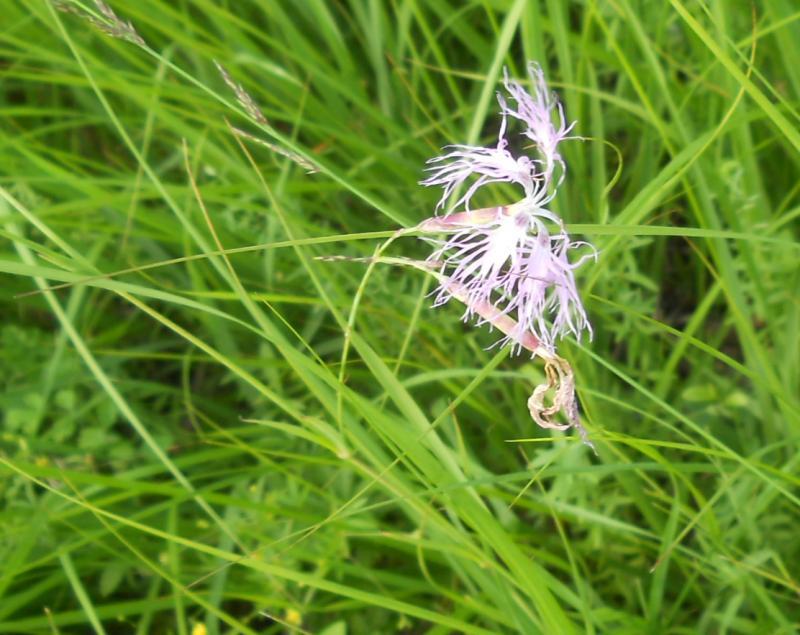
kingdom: Plantae
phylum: Tracheophyta
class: Magnoliopsida
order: Caryophyllales
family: Caryophyllaceae
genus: Dianthus
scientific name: Dianthus superbus
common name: Fringed pink
